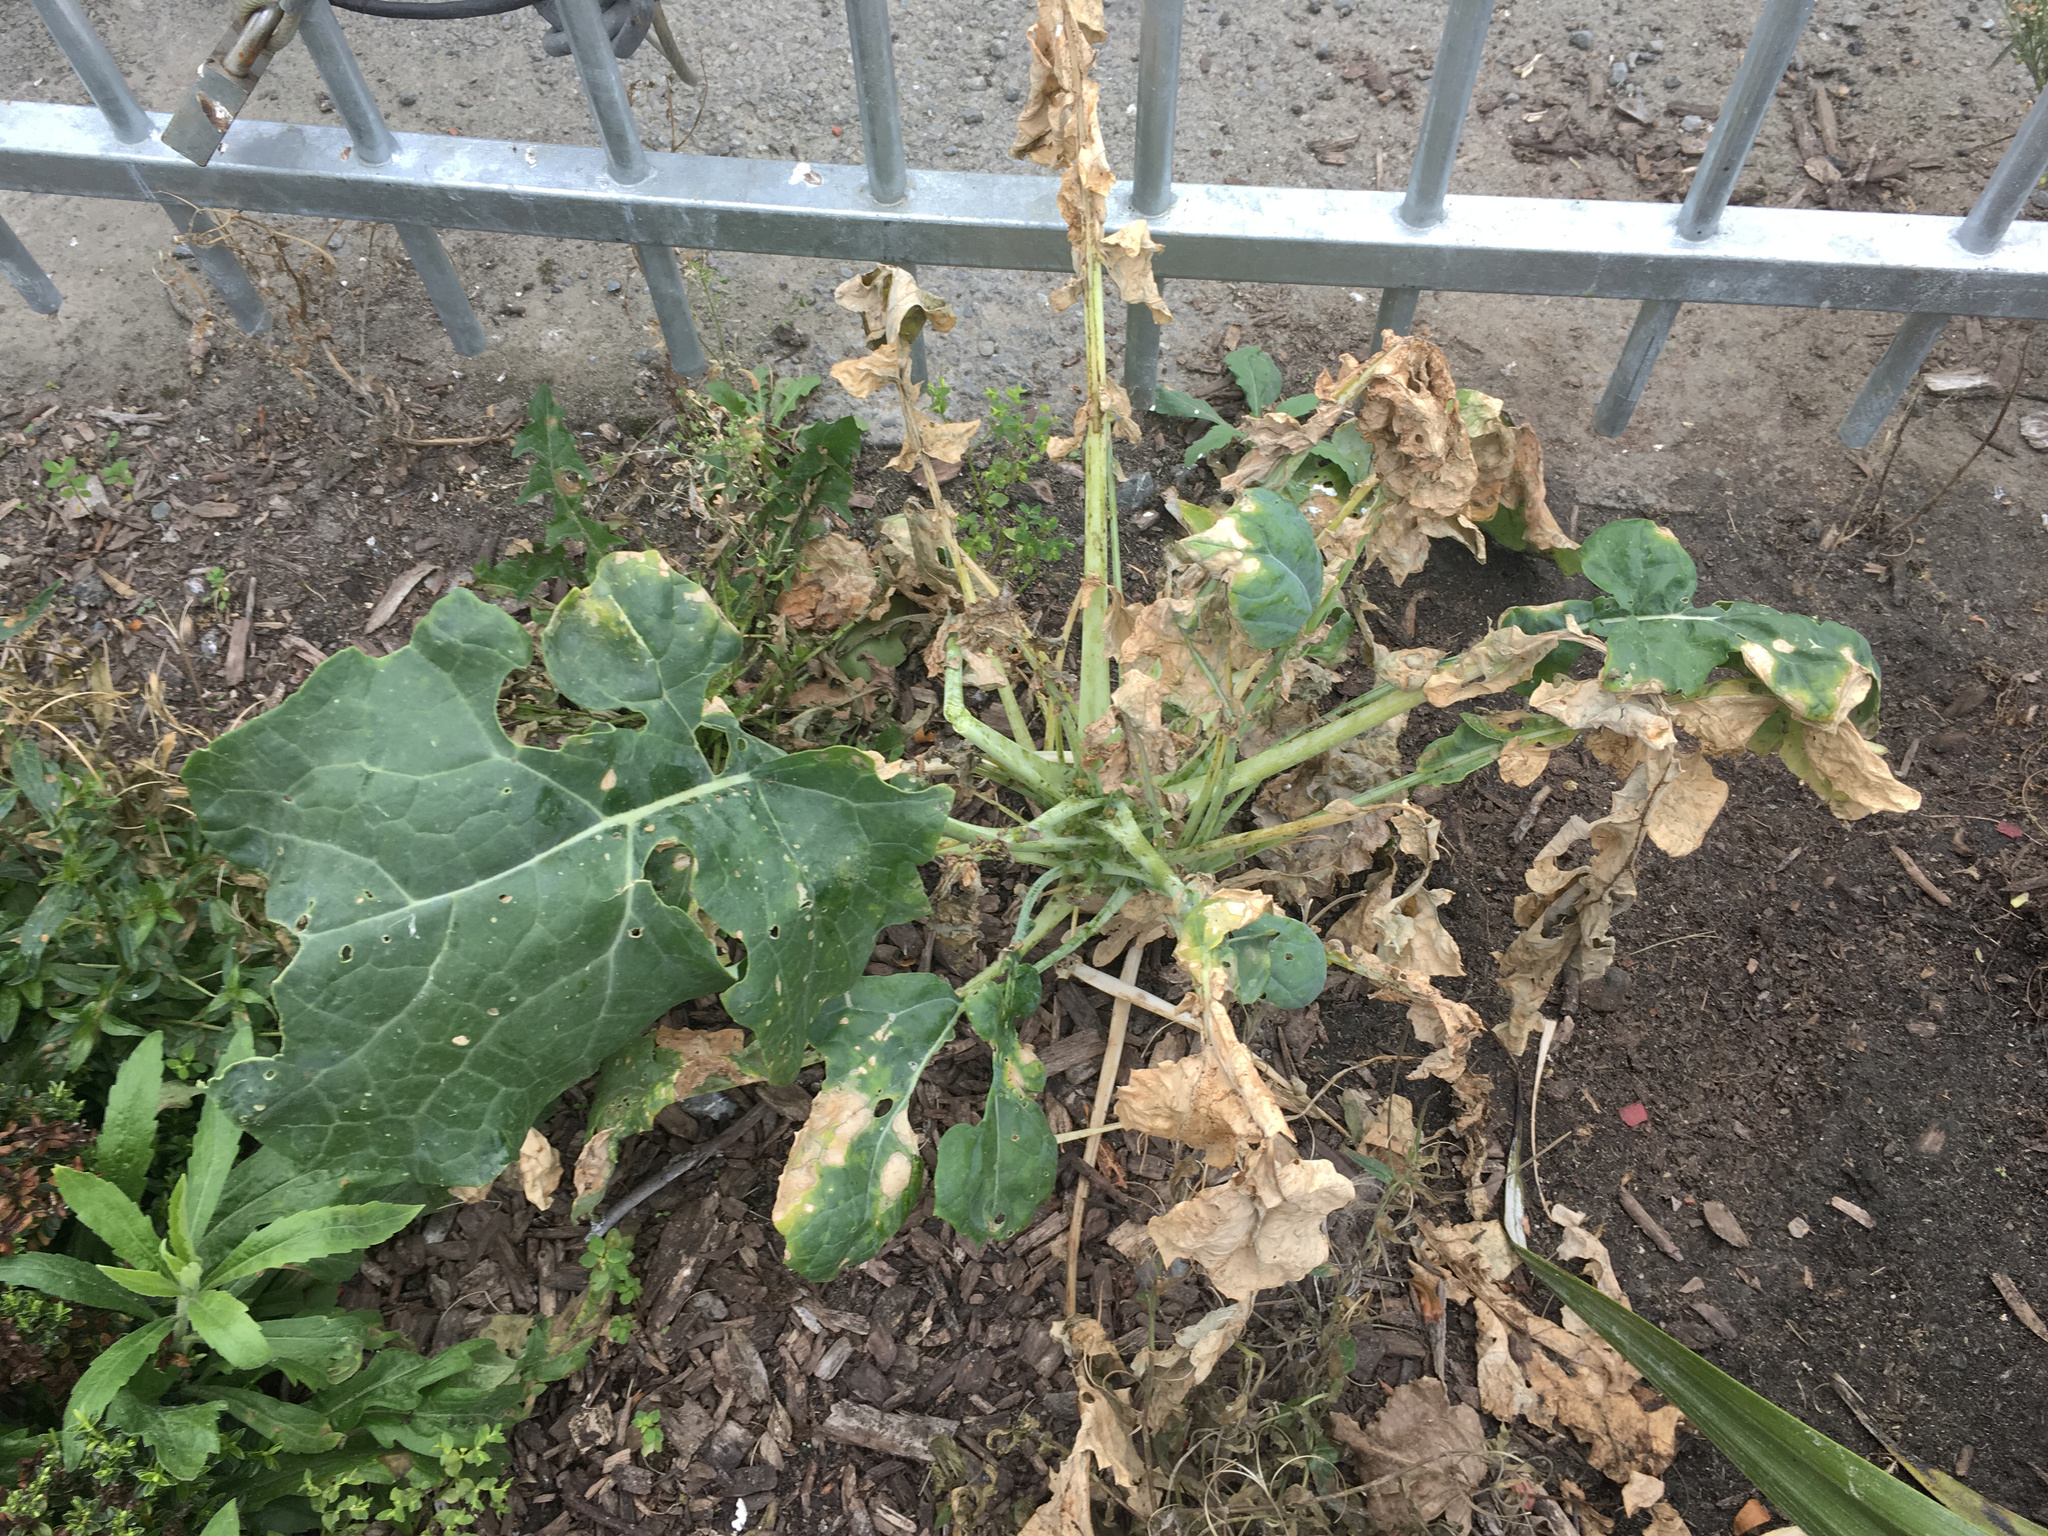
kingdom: Plantae
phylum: Tracheophyta
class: Magnoliopsida
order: Brassicales
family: Brassicaceae
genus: Brassica
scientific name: Brassica oleracea
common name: Cabbage
